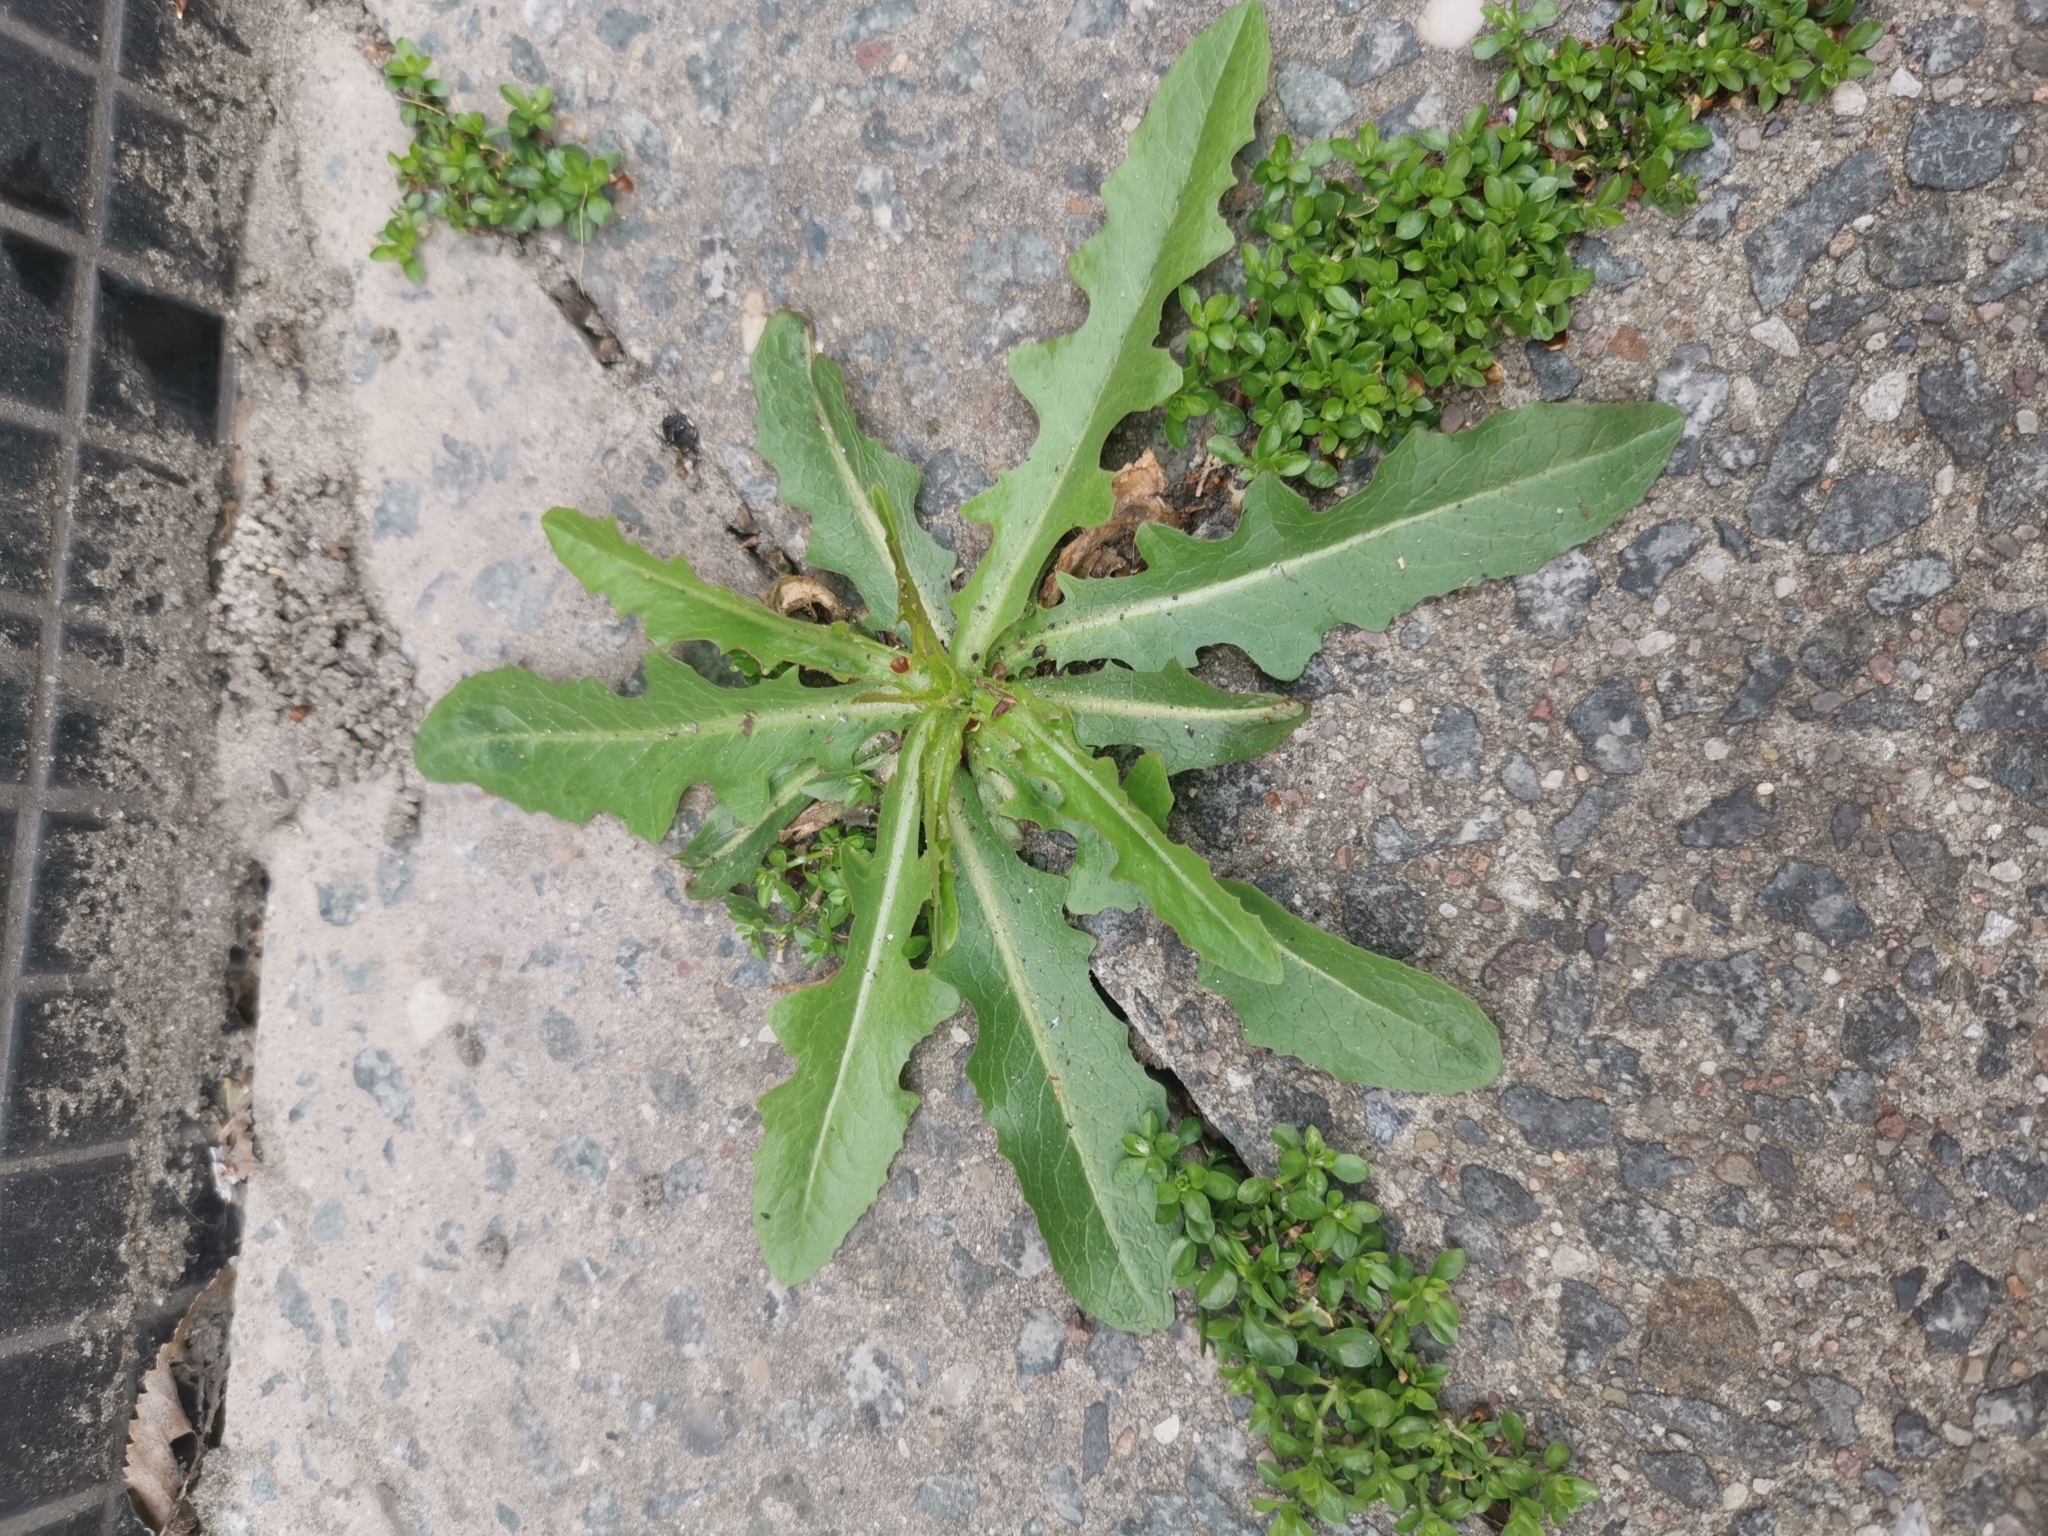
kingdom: Plantae
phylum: Tracheophyta
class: Magnoliopsida
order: Asterales
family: Asteraceae
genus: Hypochaeris
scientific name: Hypochaeris radicata
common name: Flatweed
